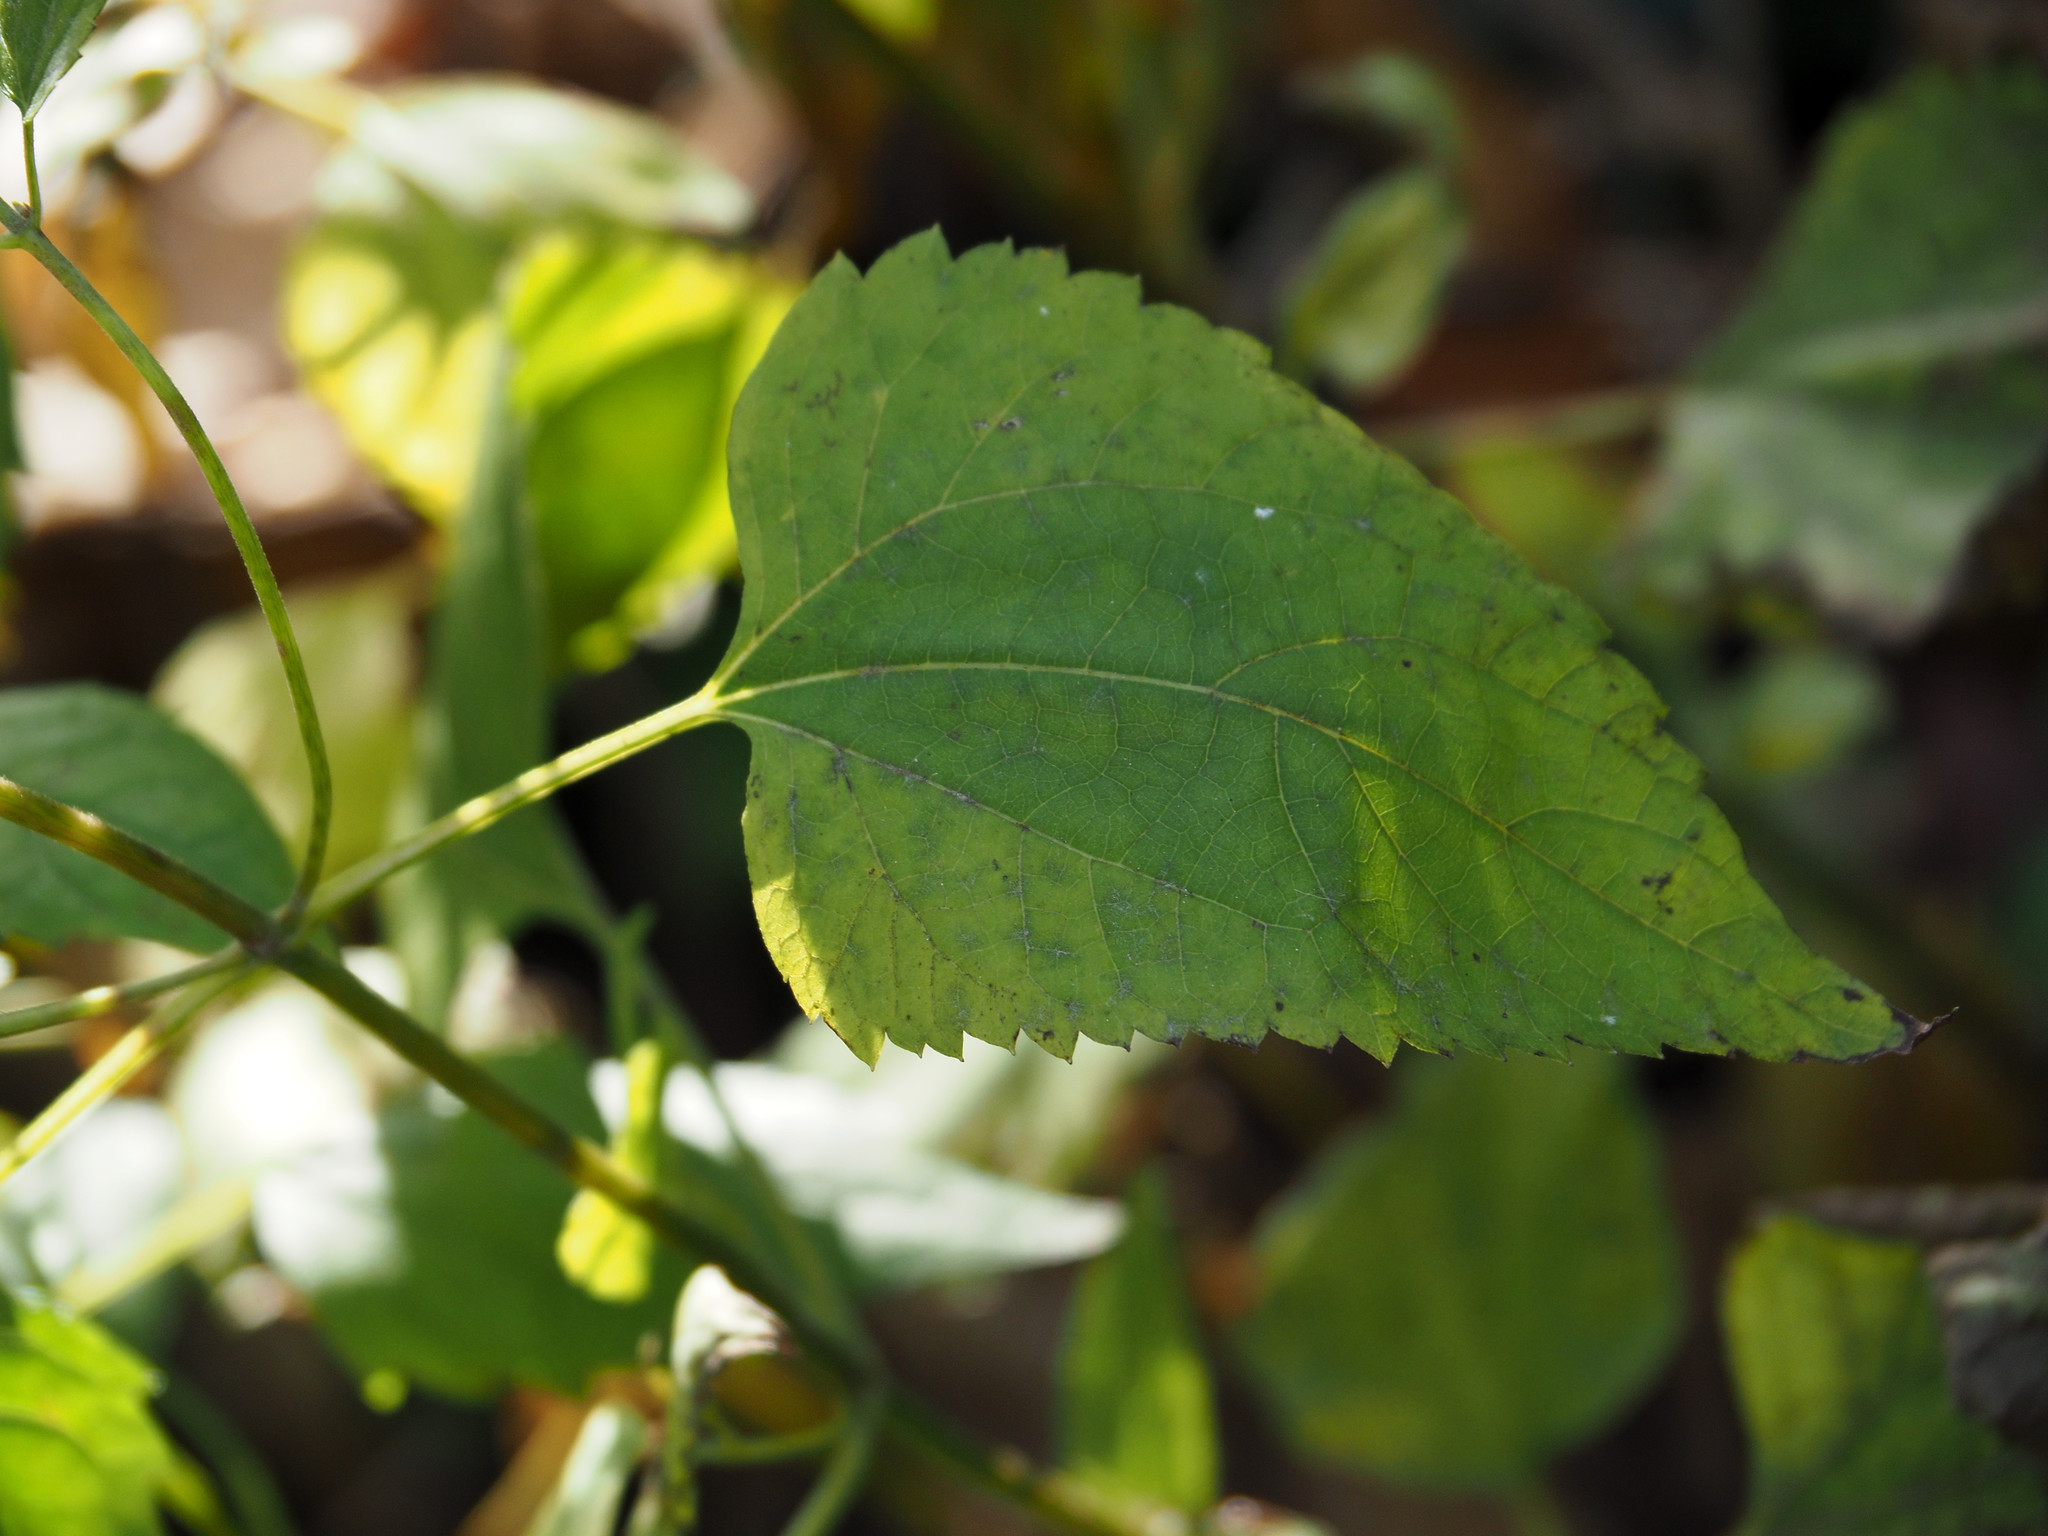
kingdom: Plantae
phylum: Tracheophyta
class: Magnoliopsida
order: Asterales
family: Asteraceae
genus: Ageratina
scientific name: Ageratina altissima
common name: White snakeroot
